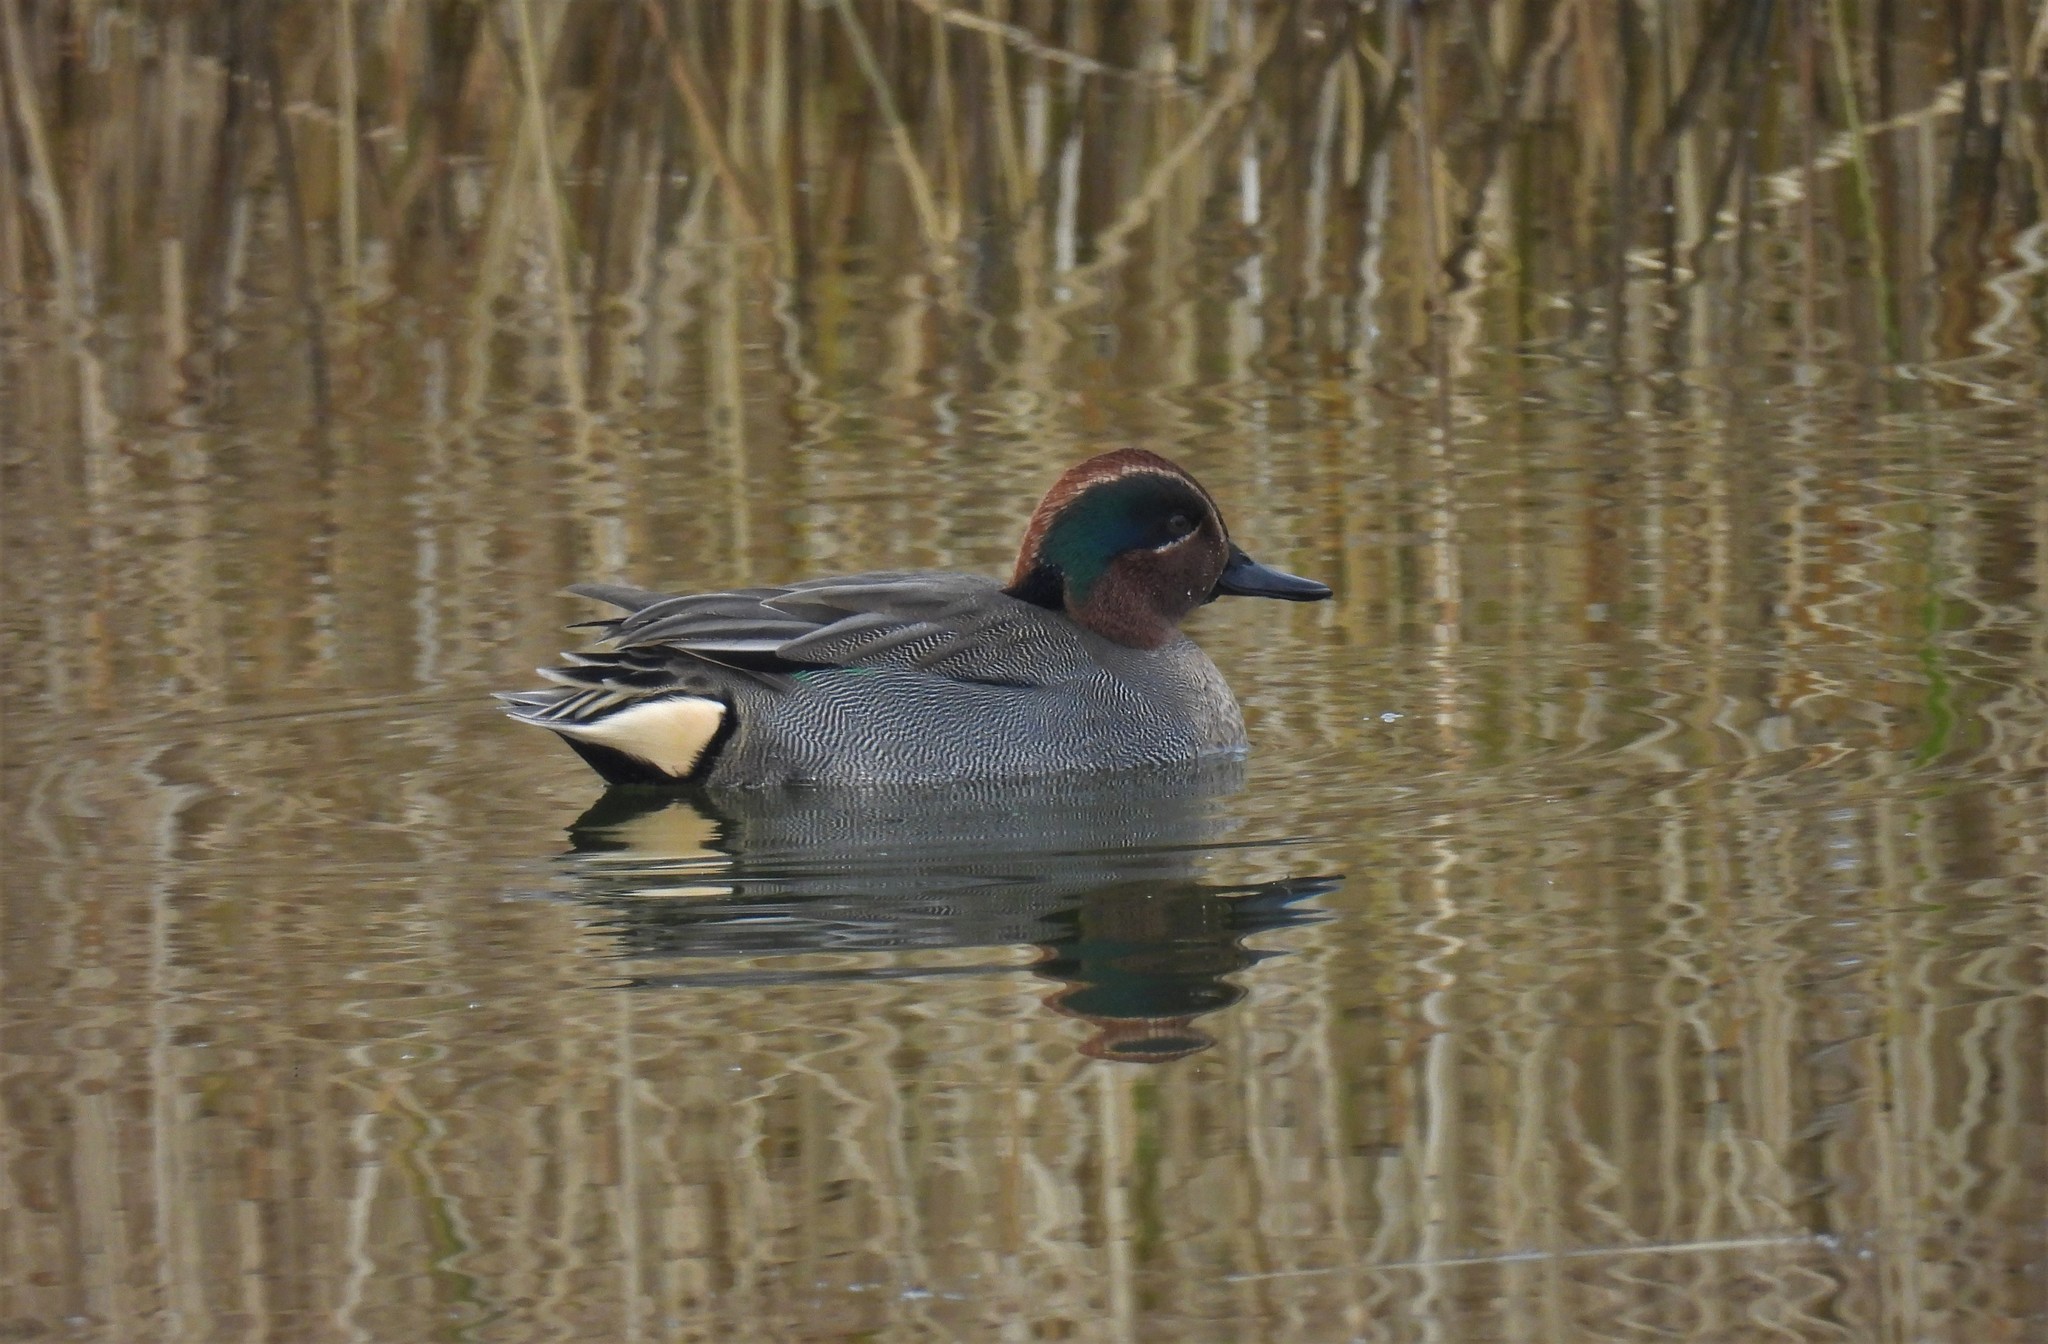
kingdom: Animalia
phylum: Chordata
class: Aves
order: Anseriformes
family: Anatidae
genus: Anas
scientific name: Anas crecca
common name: Eurasian teal
